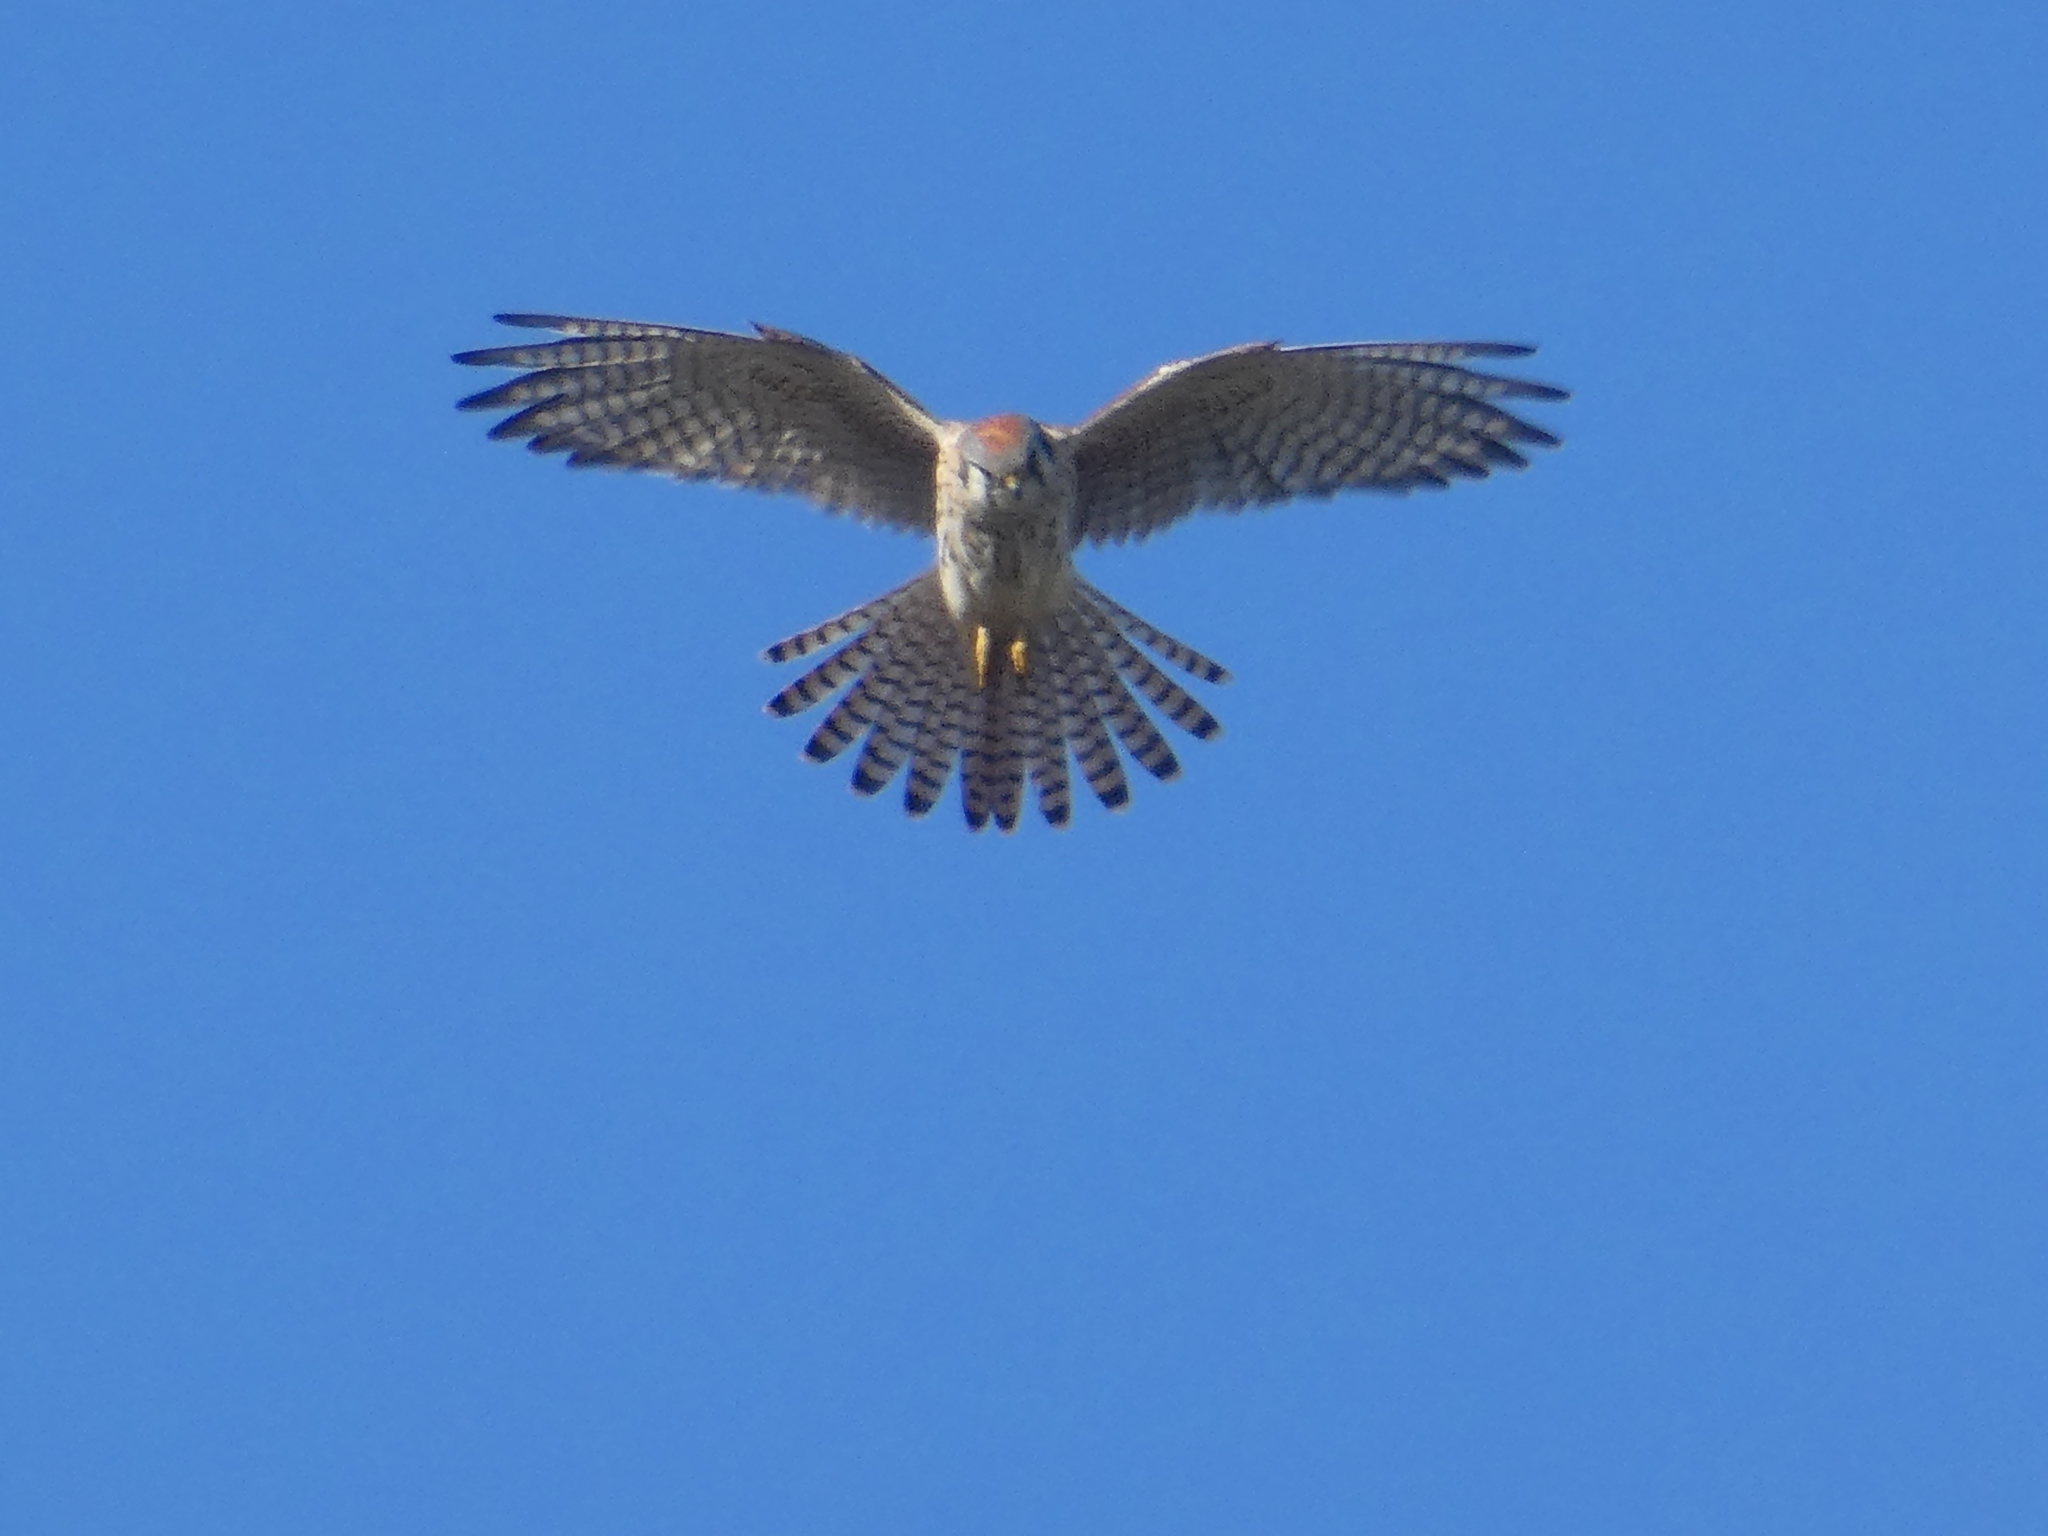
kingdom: Animalia
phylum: Chordata
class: Aves
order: Falconiformes
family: Falconidae
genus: Falco
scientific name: Falco sparverius
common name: American kestrel
